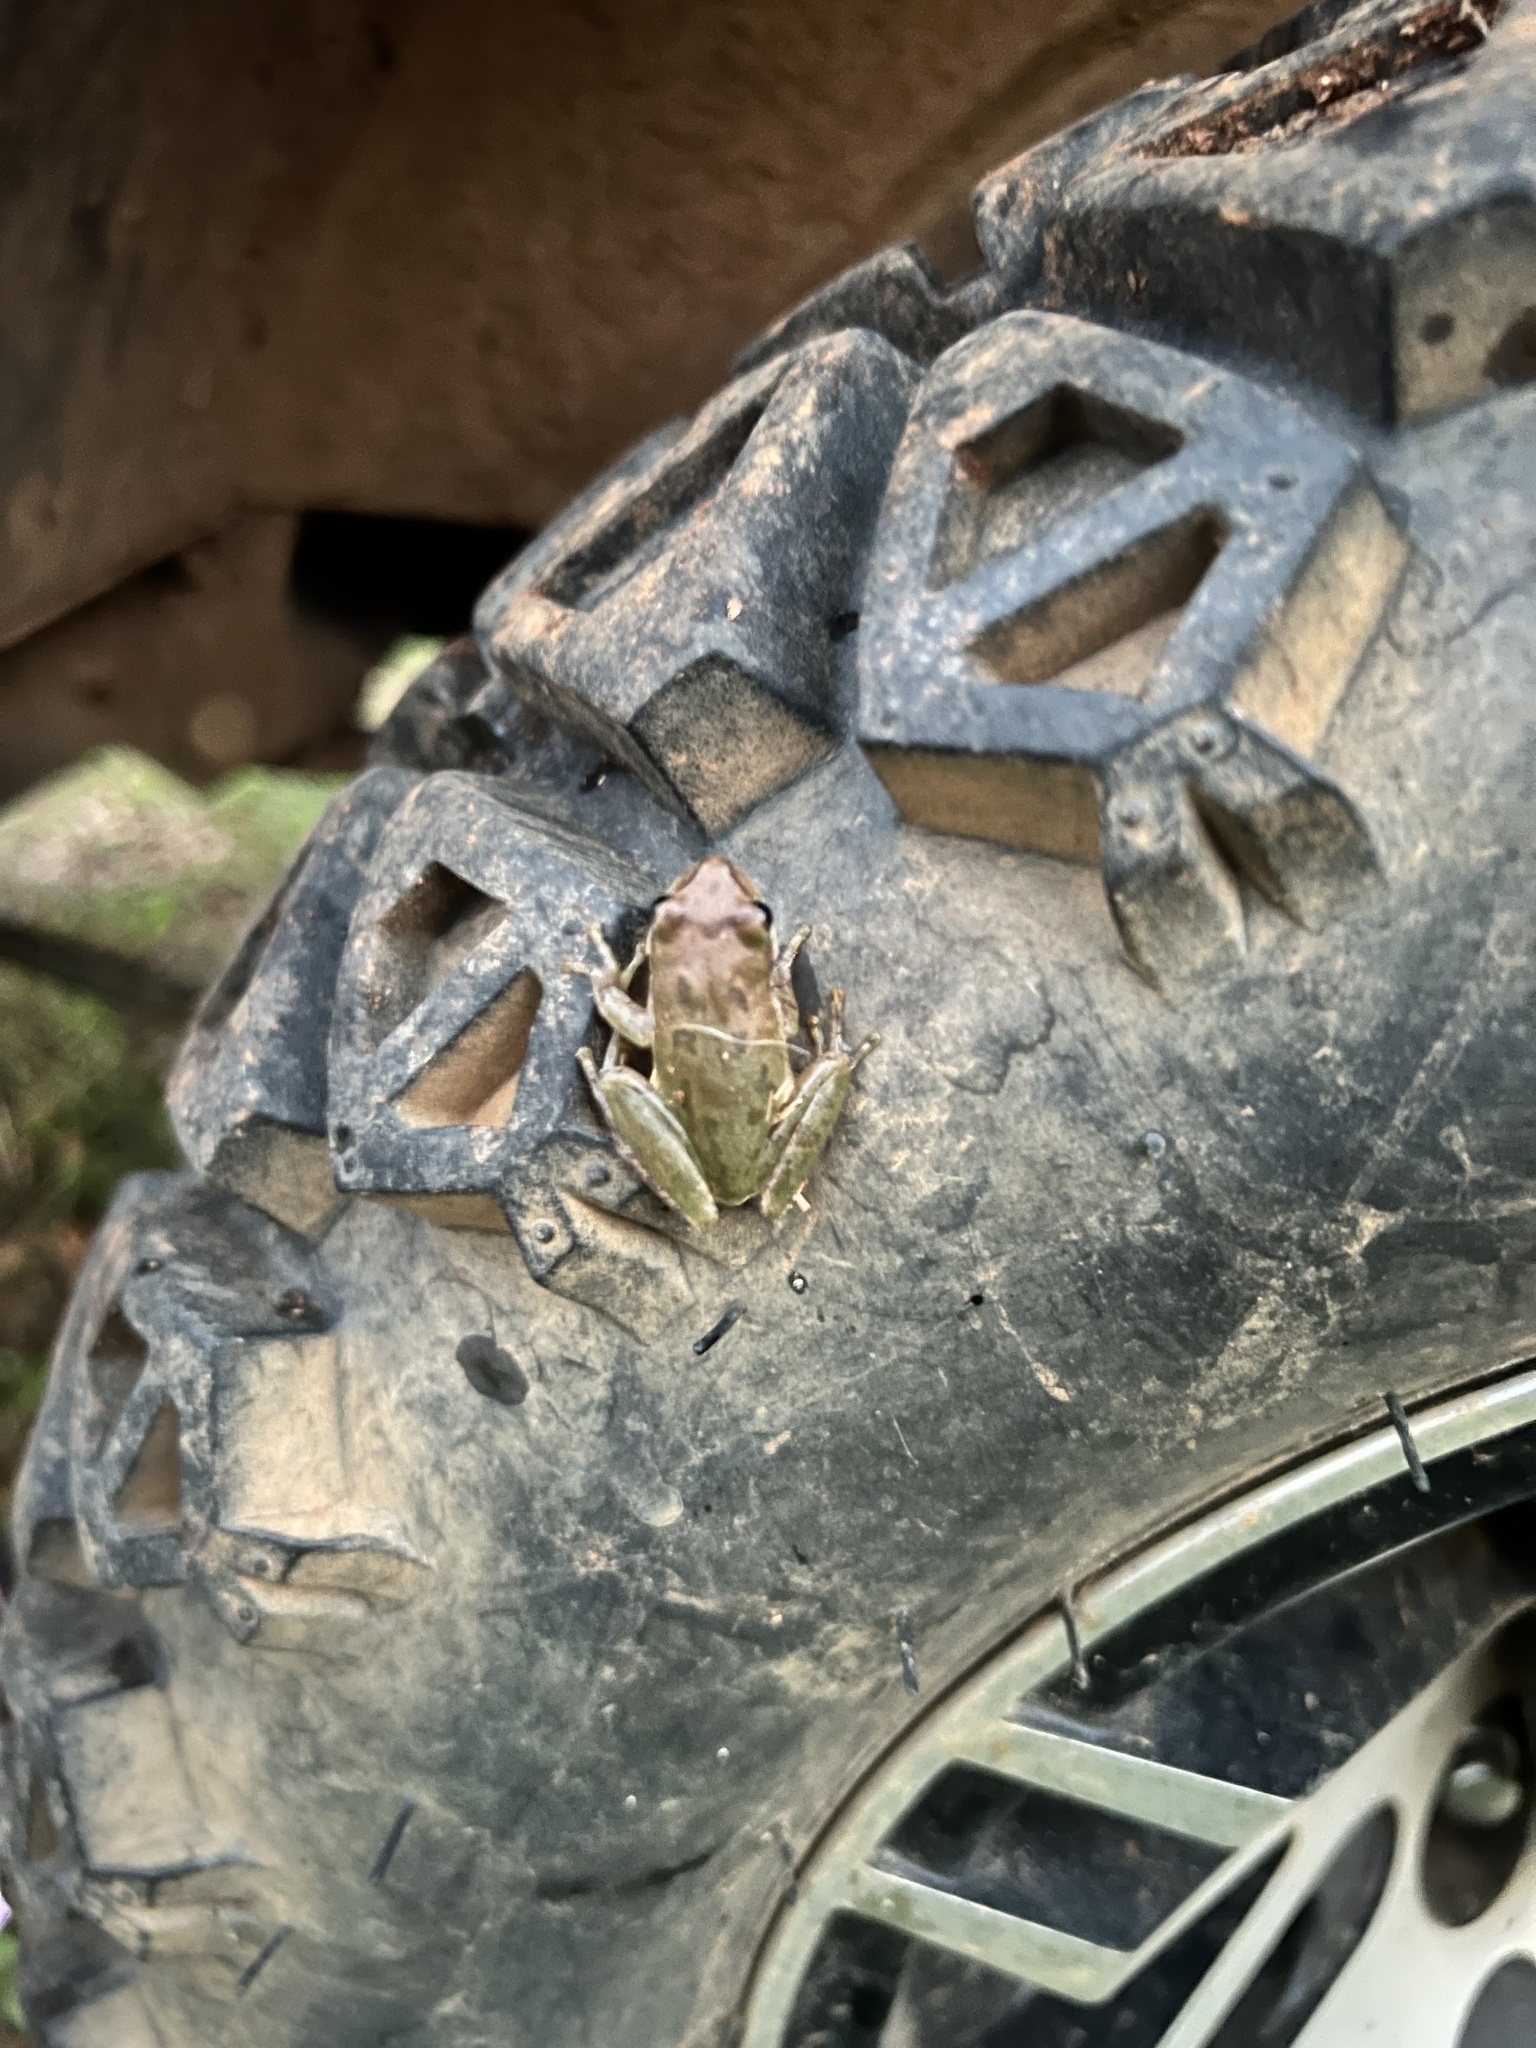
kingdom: Animalia
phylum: Chordata
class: Amphibia
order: Anura
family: Hylidae
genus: Dryophytes
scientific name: Dryophytes squirellus
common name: Squirrel treefrog
